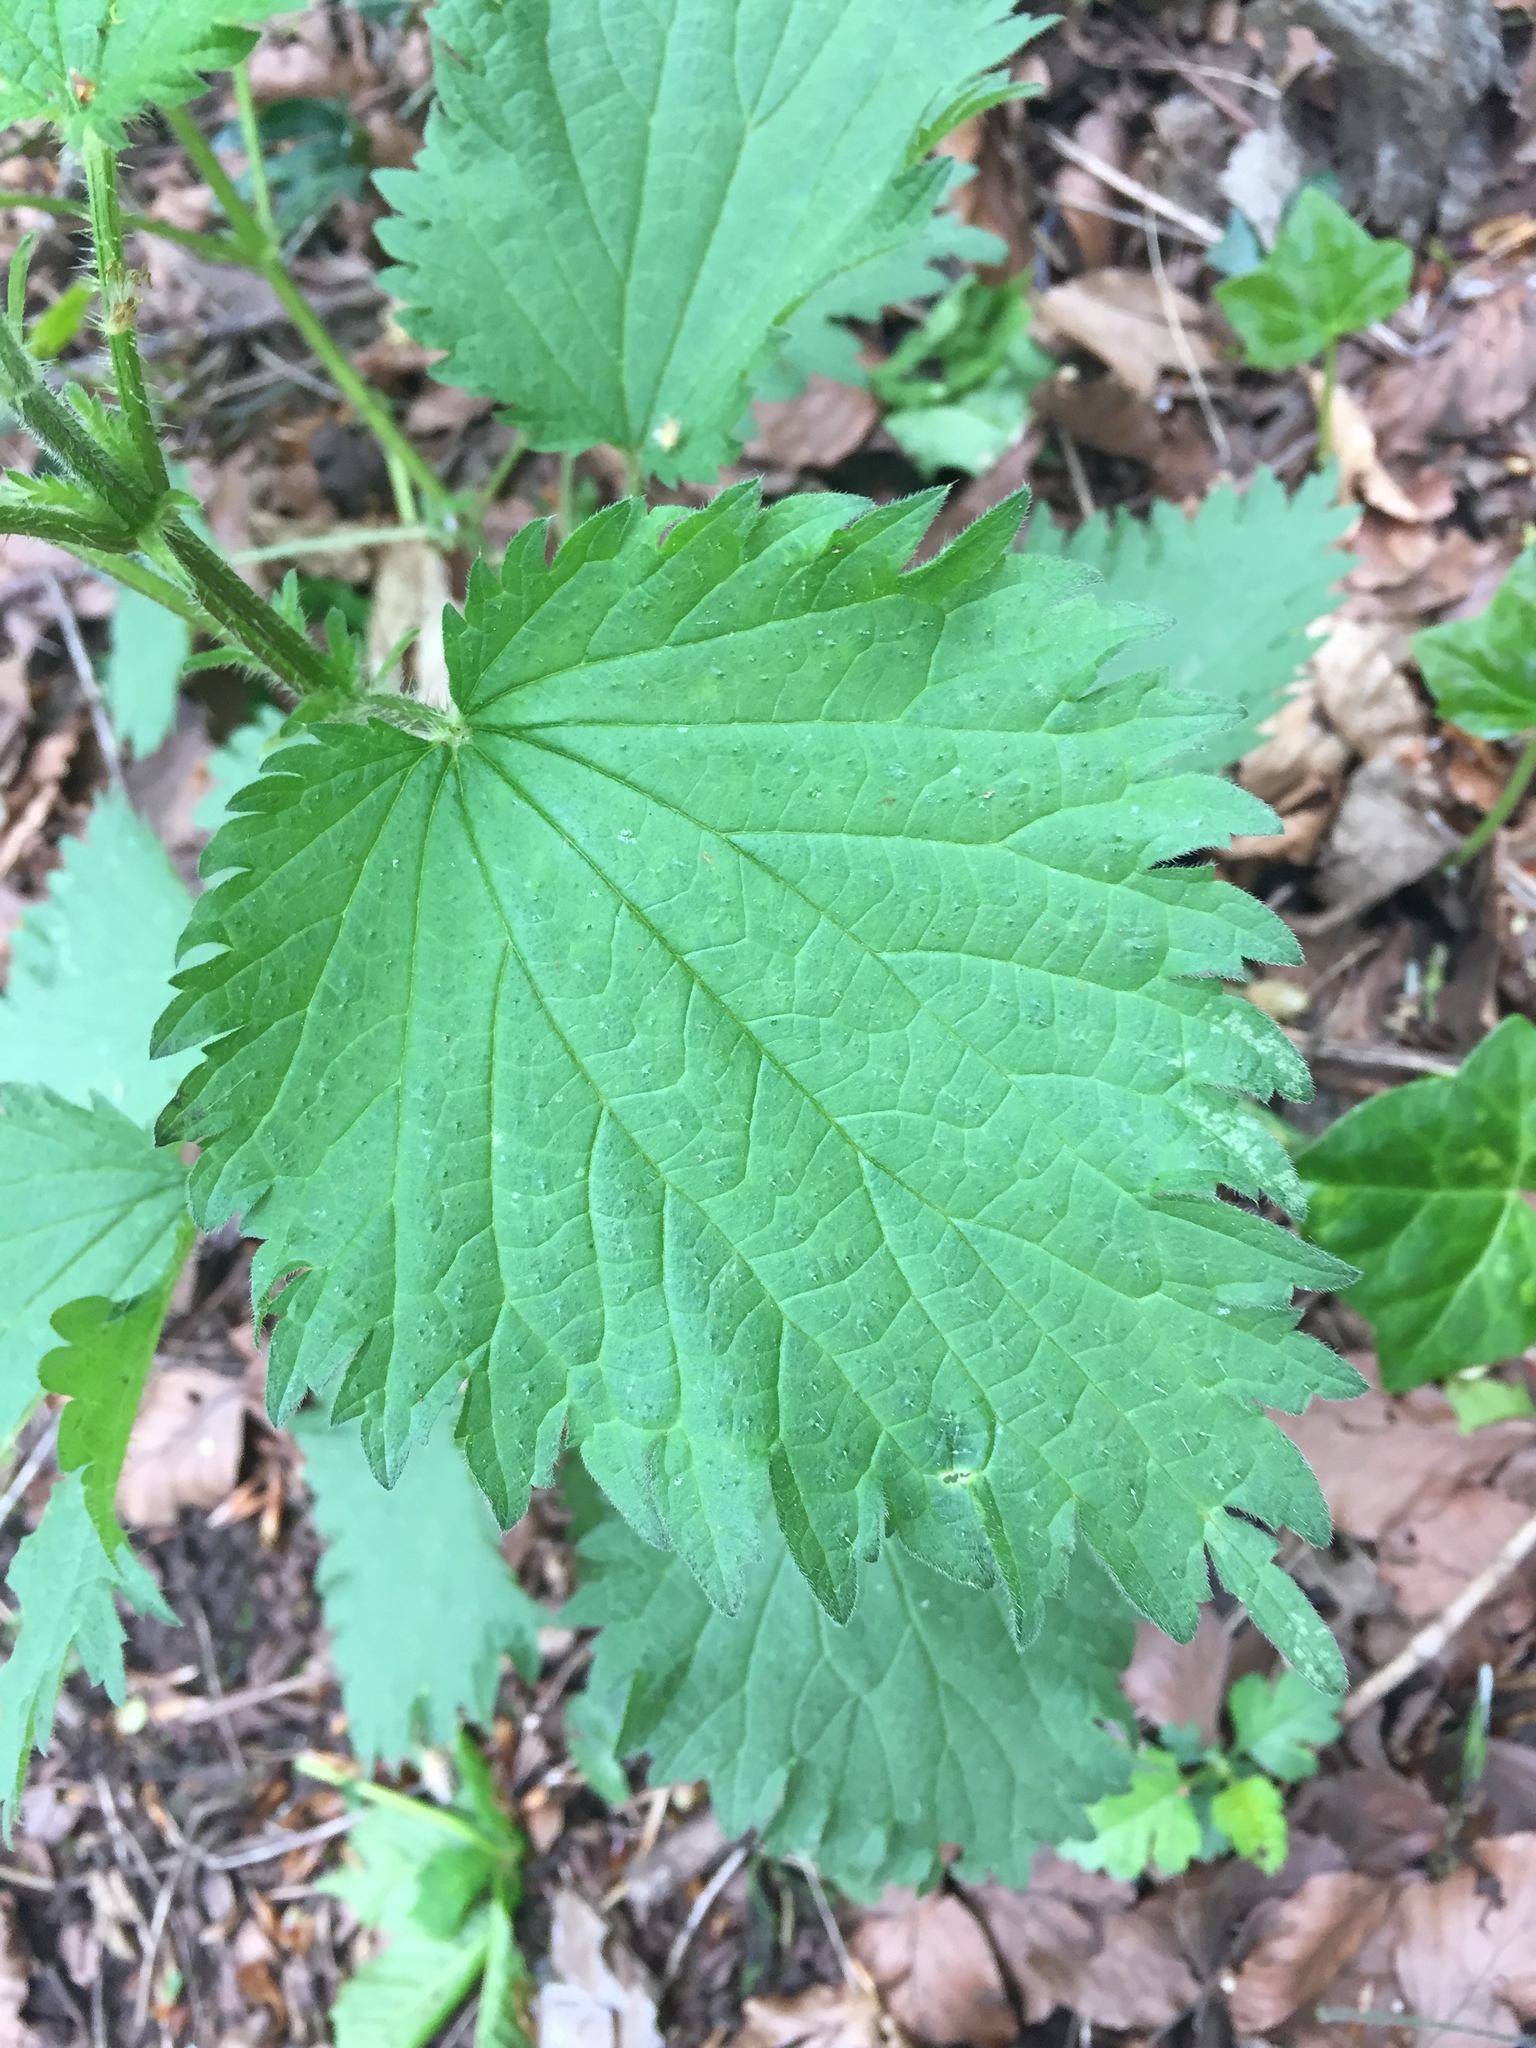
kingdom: Plantae
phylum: Tracheophyta
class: Magnoliopsida
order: Rosales
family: Urticaceae
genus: Urtica
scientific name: Urtica dioica
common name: Common nettle
